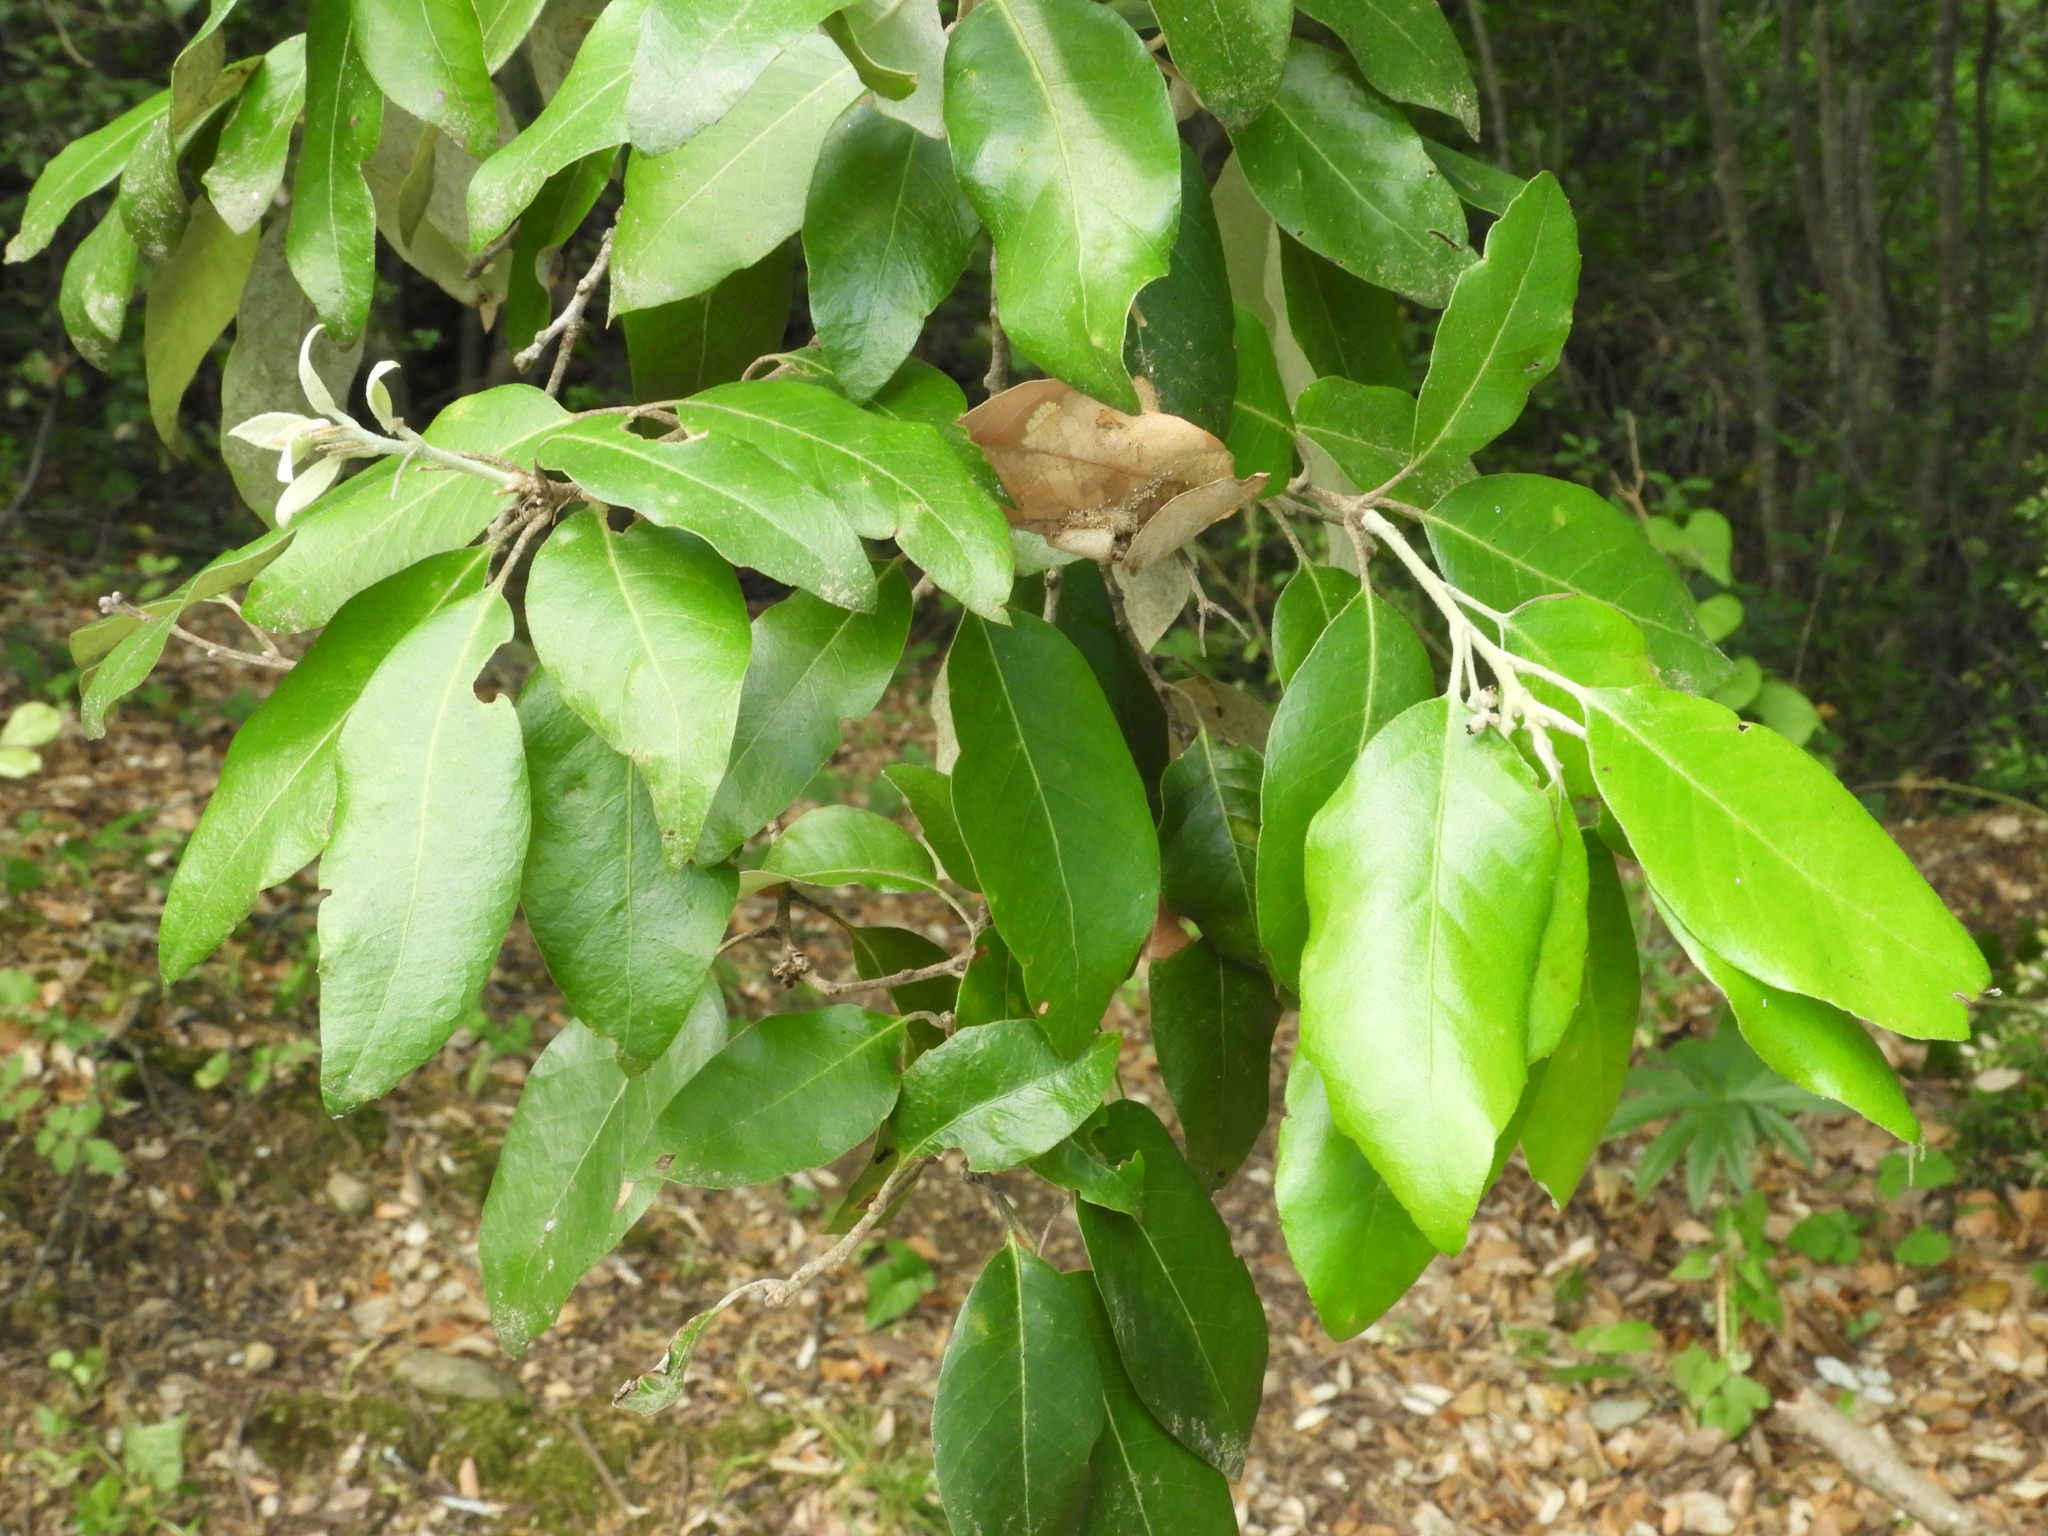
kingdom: Plantae
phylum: Tracheophyta
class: Magnoliopsida
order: Fagales
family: Fagaceae
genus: Quercus
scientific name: Quercus ilex
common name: Evergreen oak
